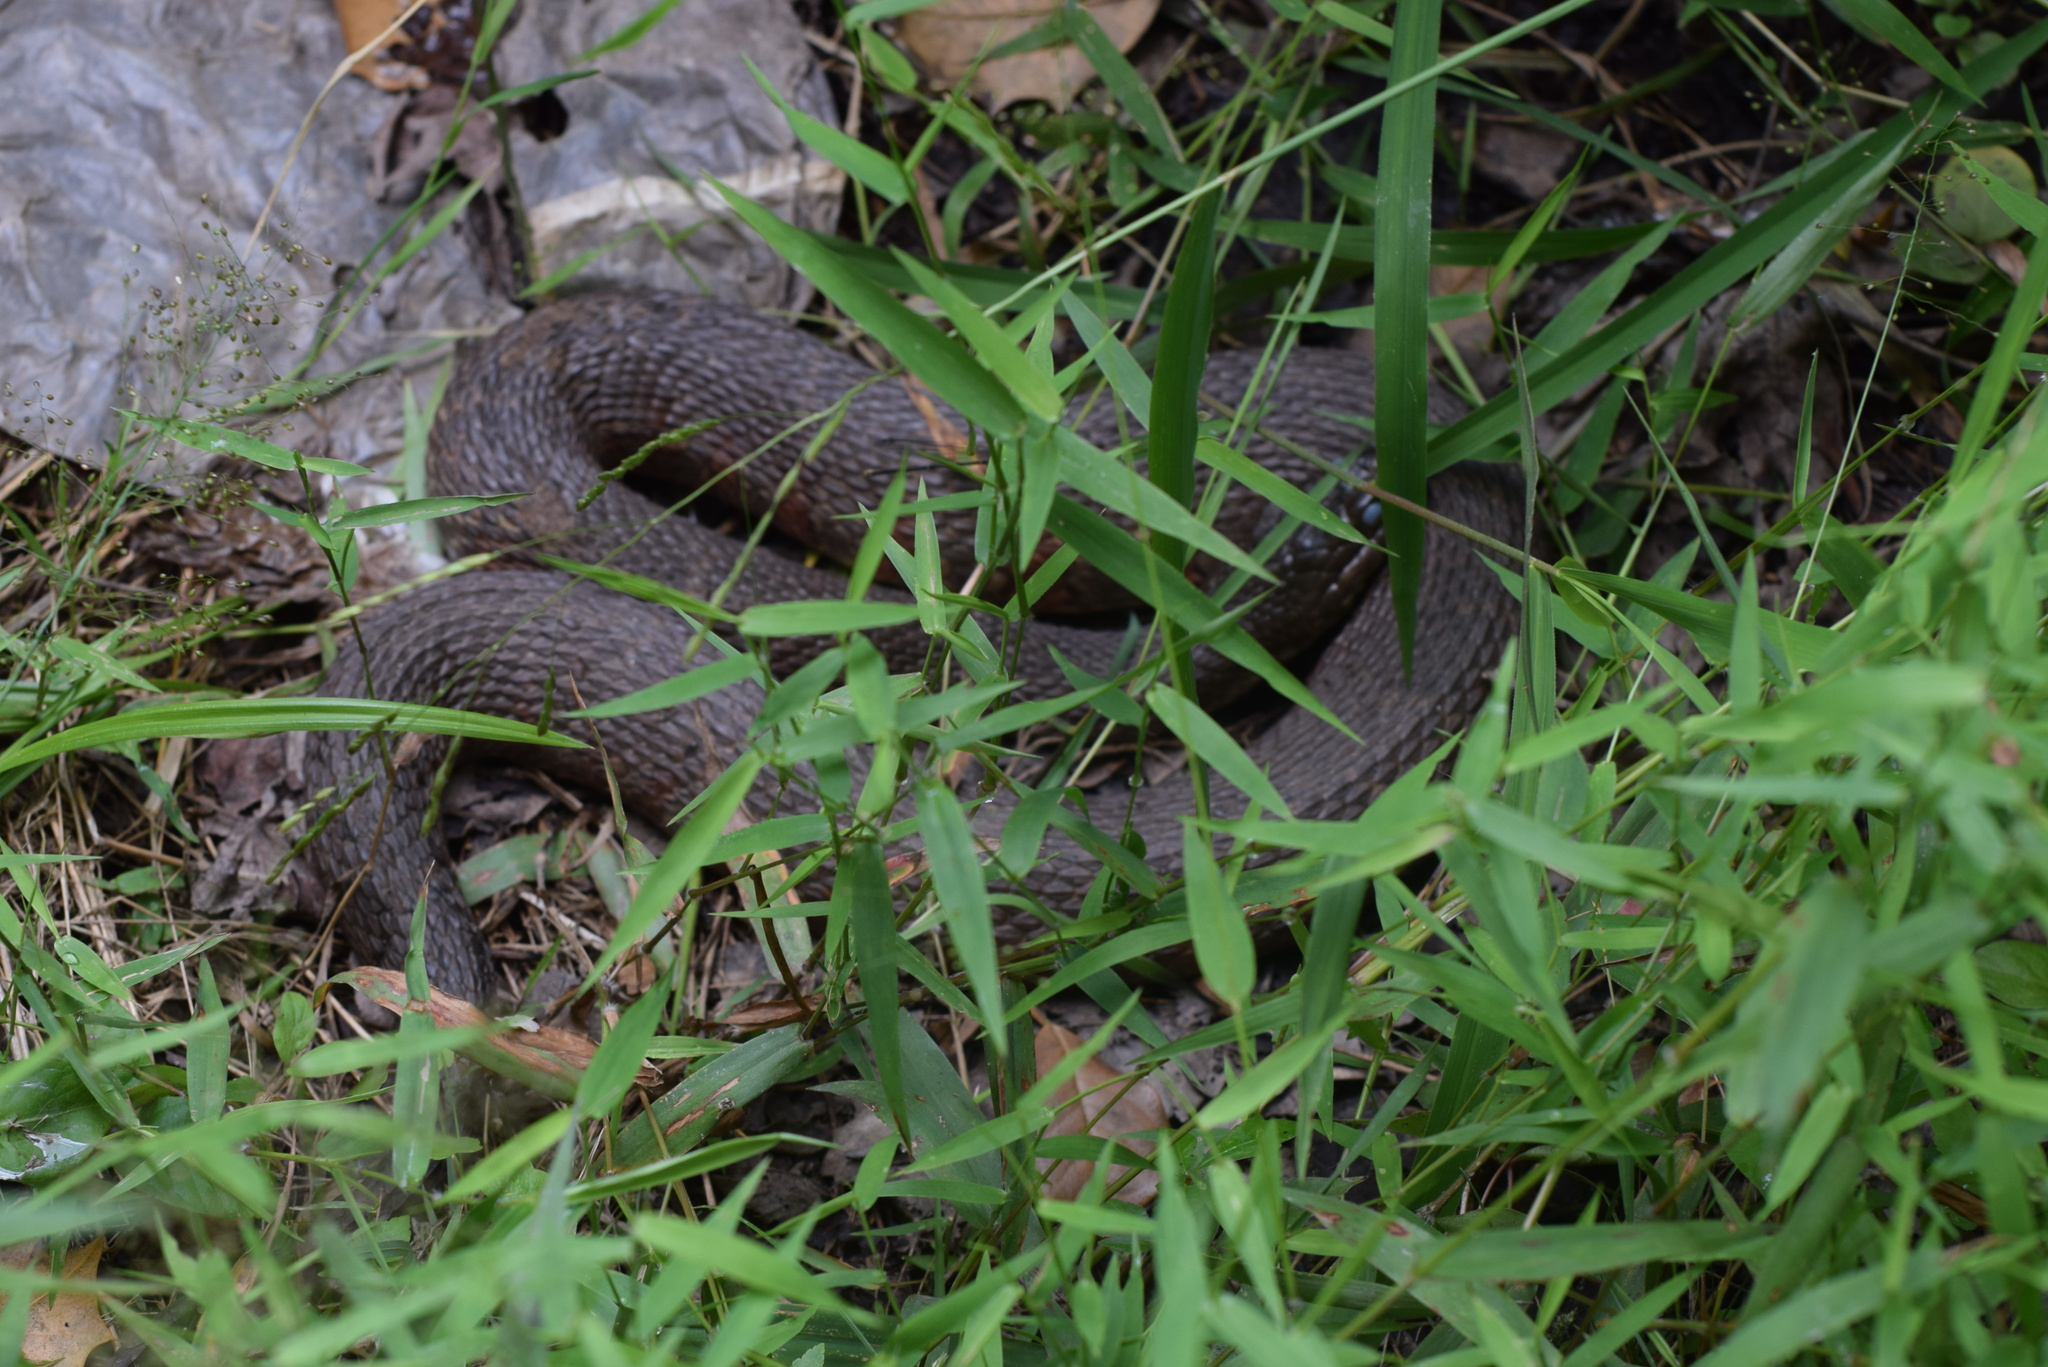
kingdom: Animalia
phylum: Chordata
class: Squamata
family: Colubridae
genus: Nerodia
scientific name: Nerodia sipedon
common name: Northern water snake
